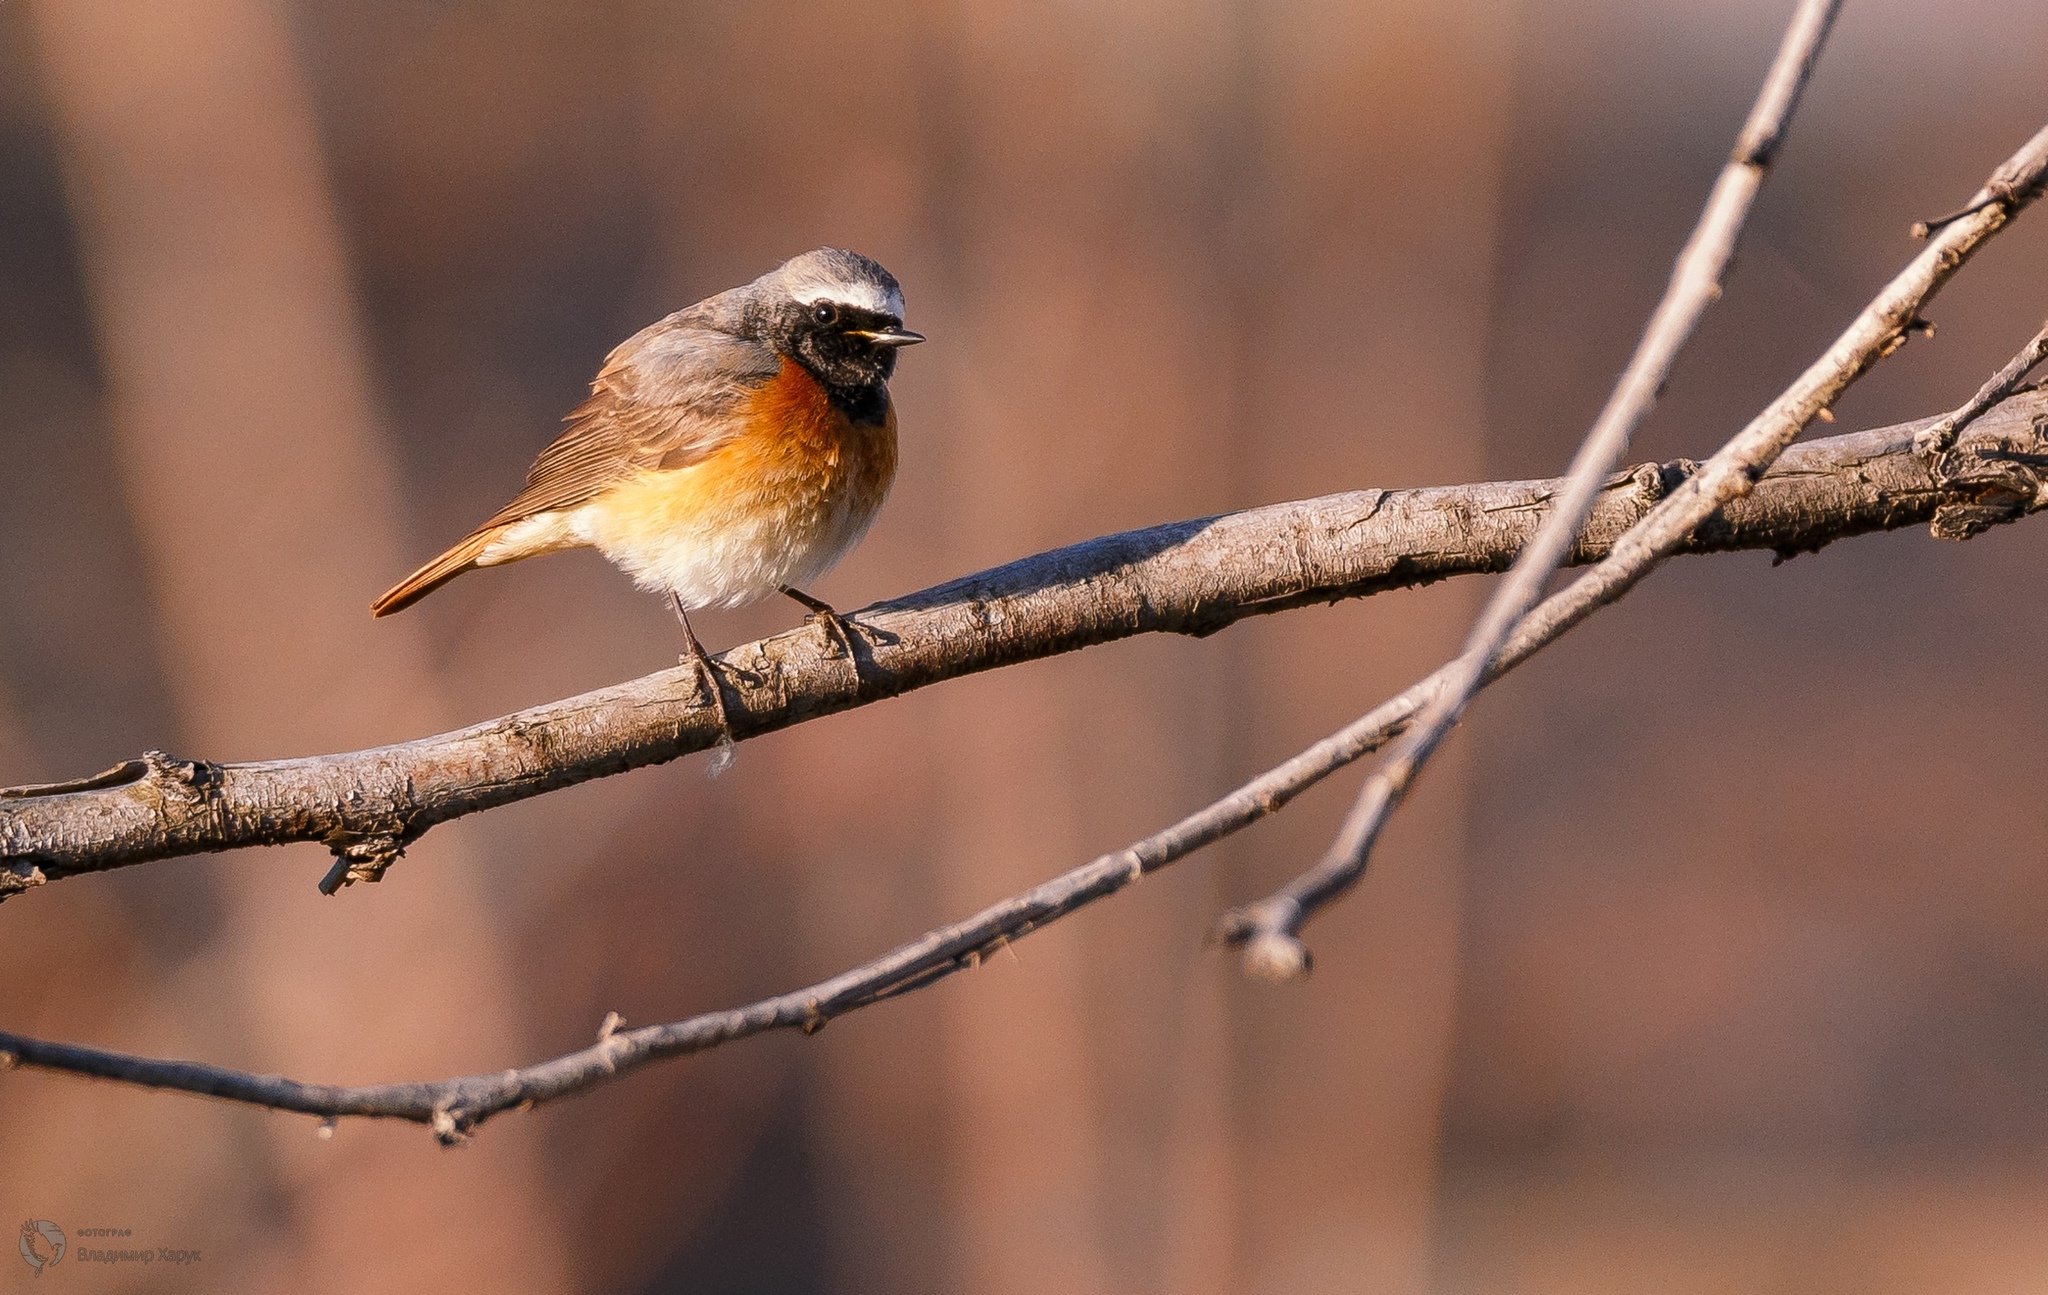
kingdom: Animalia
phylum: Chordata
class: Aves
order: Passeriformes
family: Muscicapidae
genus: Phoenicurus
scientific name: Phoenicurus phoenicurus
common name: Common redstart
